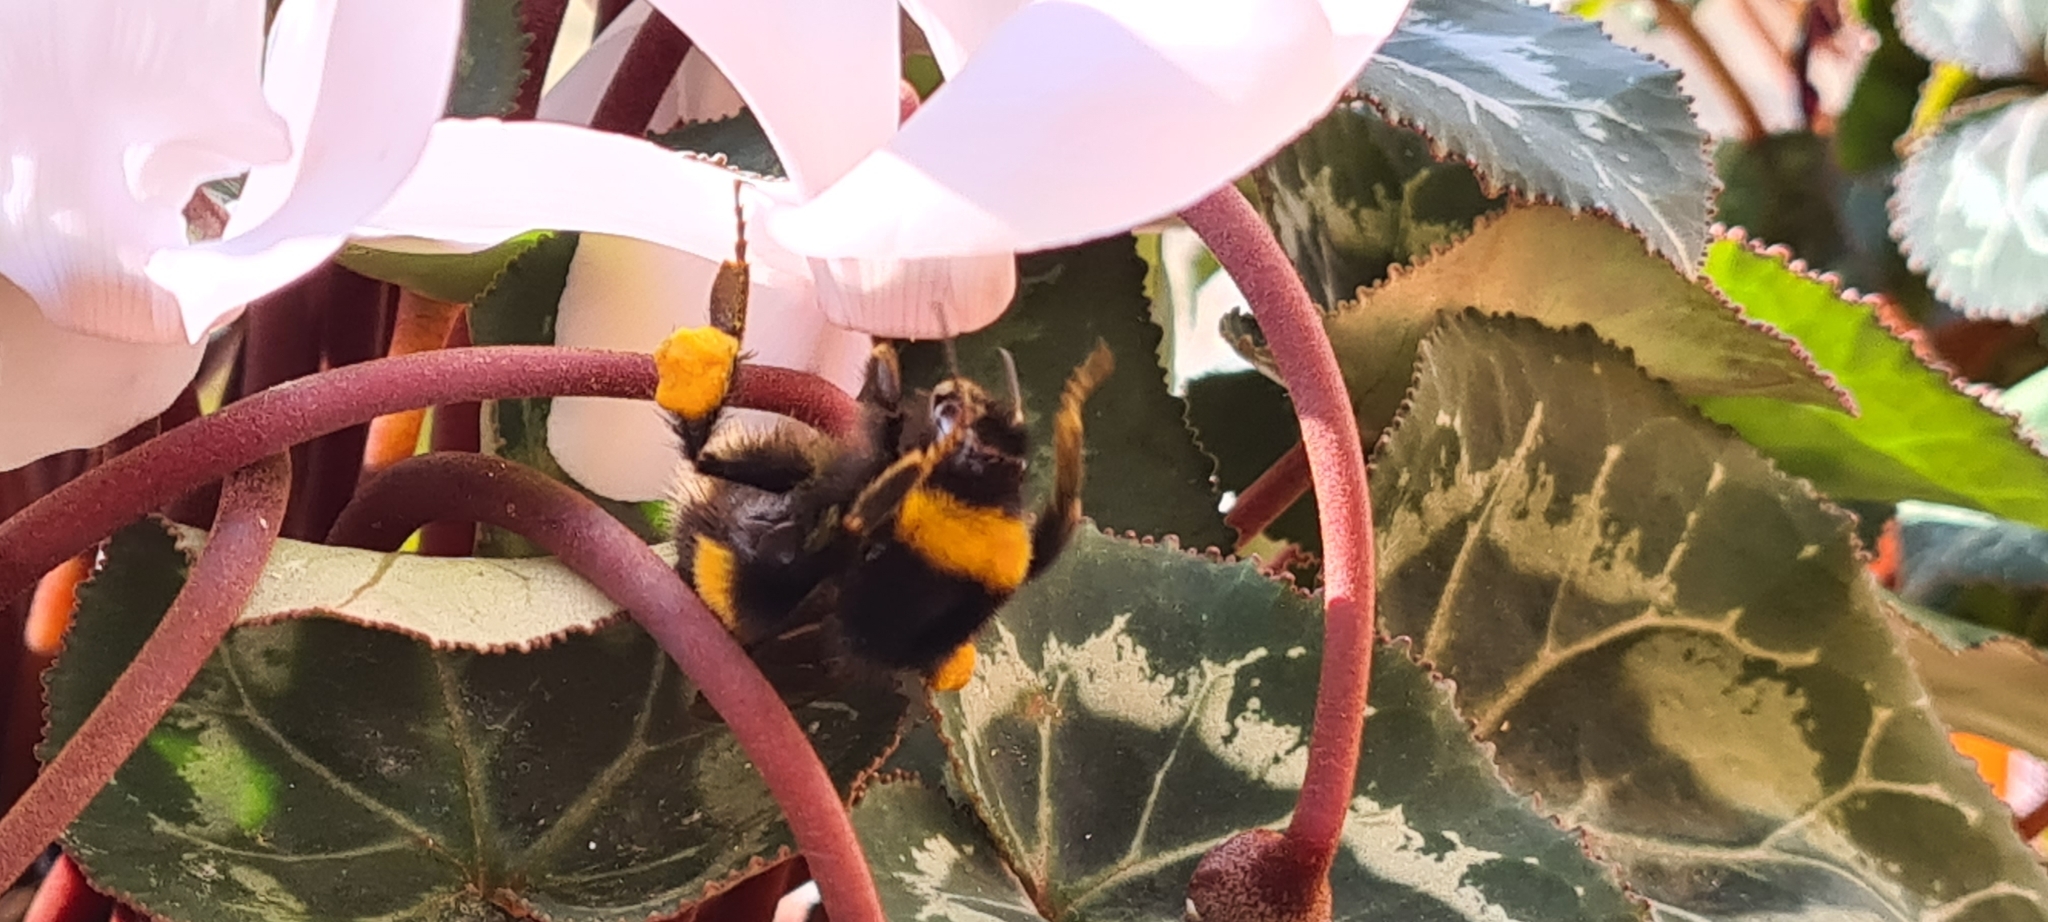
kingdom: Animalia
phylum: Arthropoda
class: Insecta
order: Hymenoptera
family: Apidae
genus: Bombus
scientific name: Bombus terrestris
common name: Buff-tailed bumblebee
